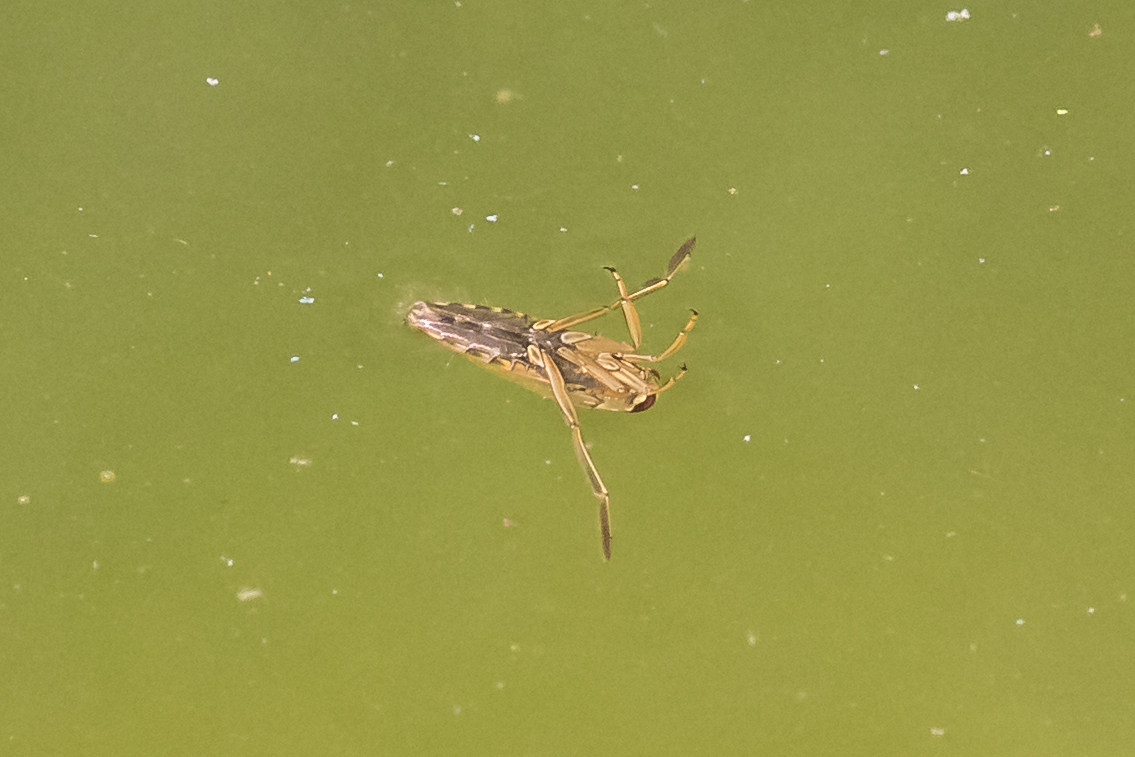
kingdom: Animalia
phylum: Arthropoda
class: Insecta
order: Hemiptera
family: Notonectidae
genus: Notonecta
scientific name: Notonecta
